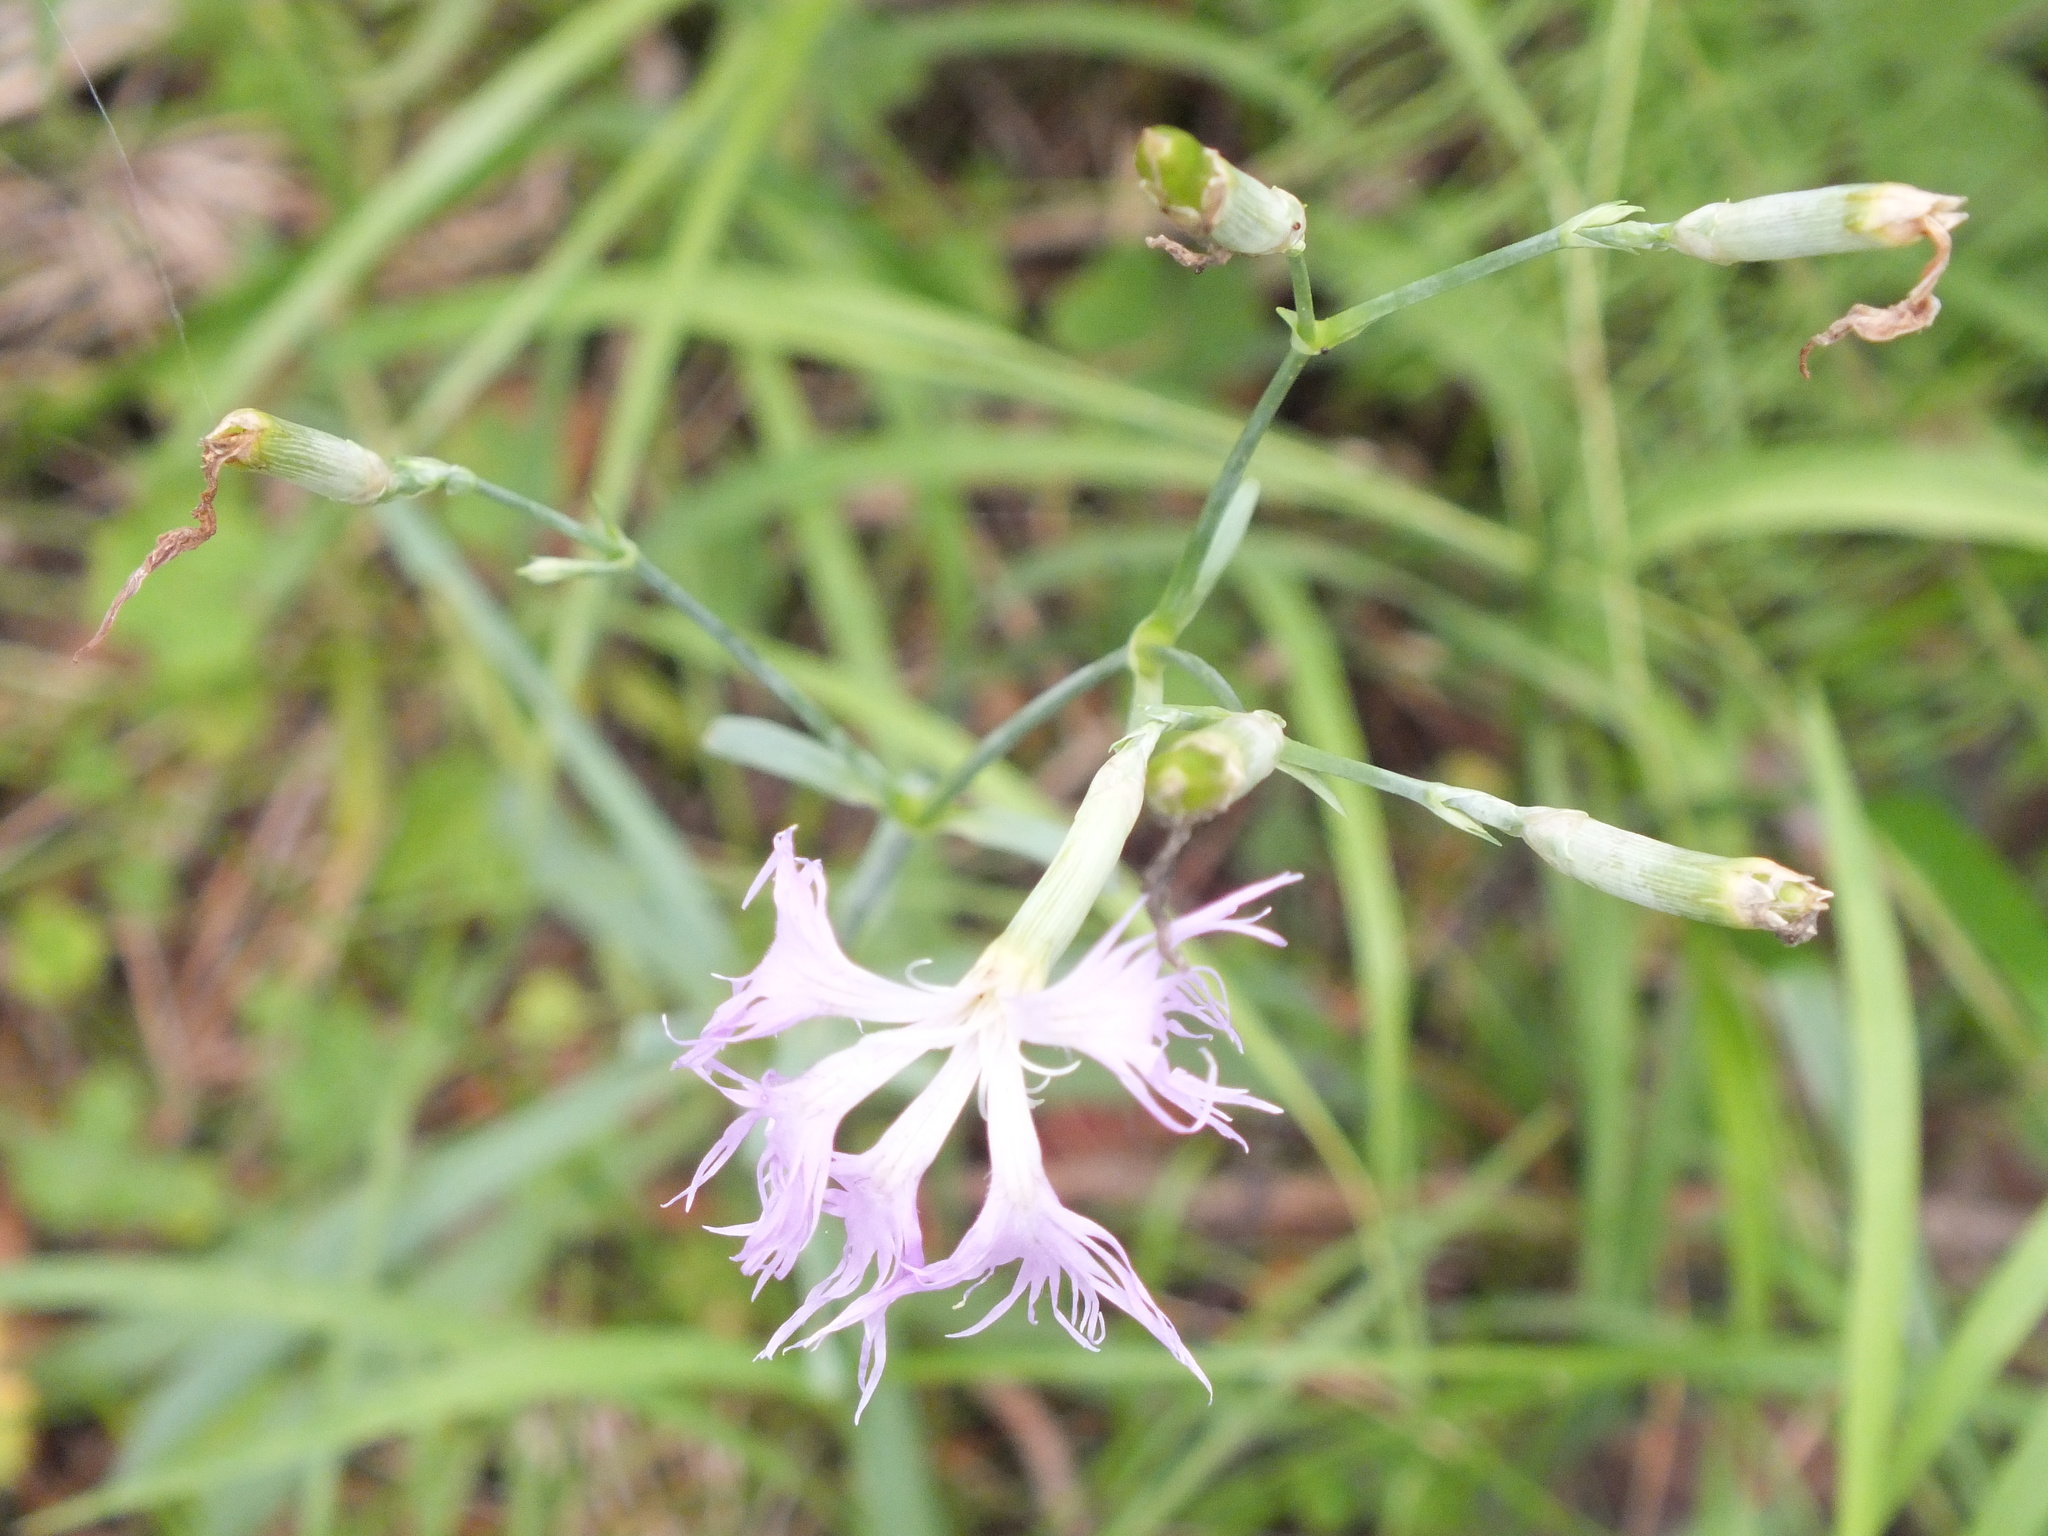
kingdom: Plantae
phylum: Tracheophyta
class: Magnoliopsida
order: Caryophyllales
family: Caryophyllaceae
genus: Dianthus
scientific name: Dianthus superbus
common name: Fringed pink
